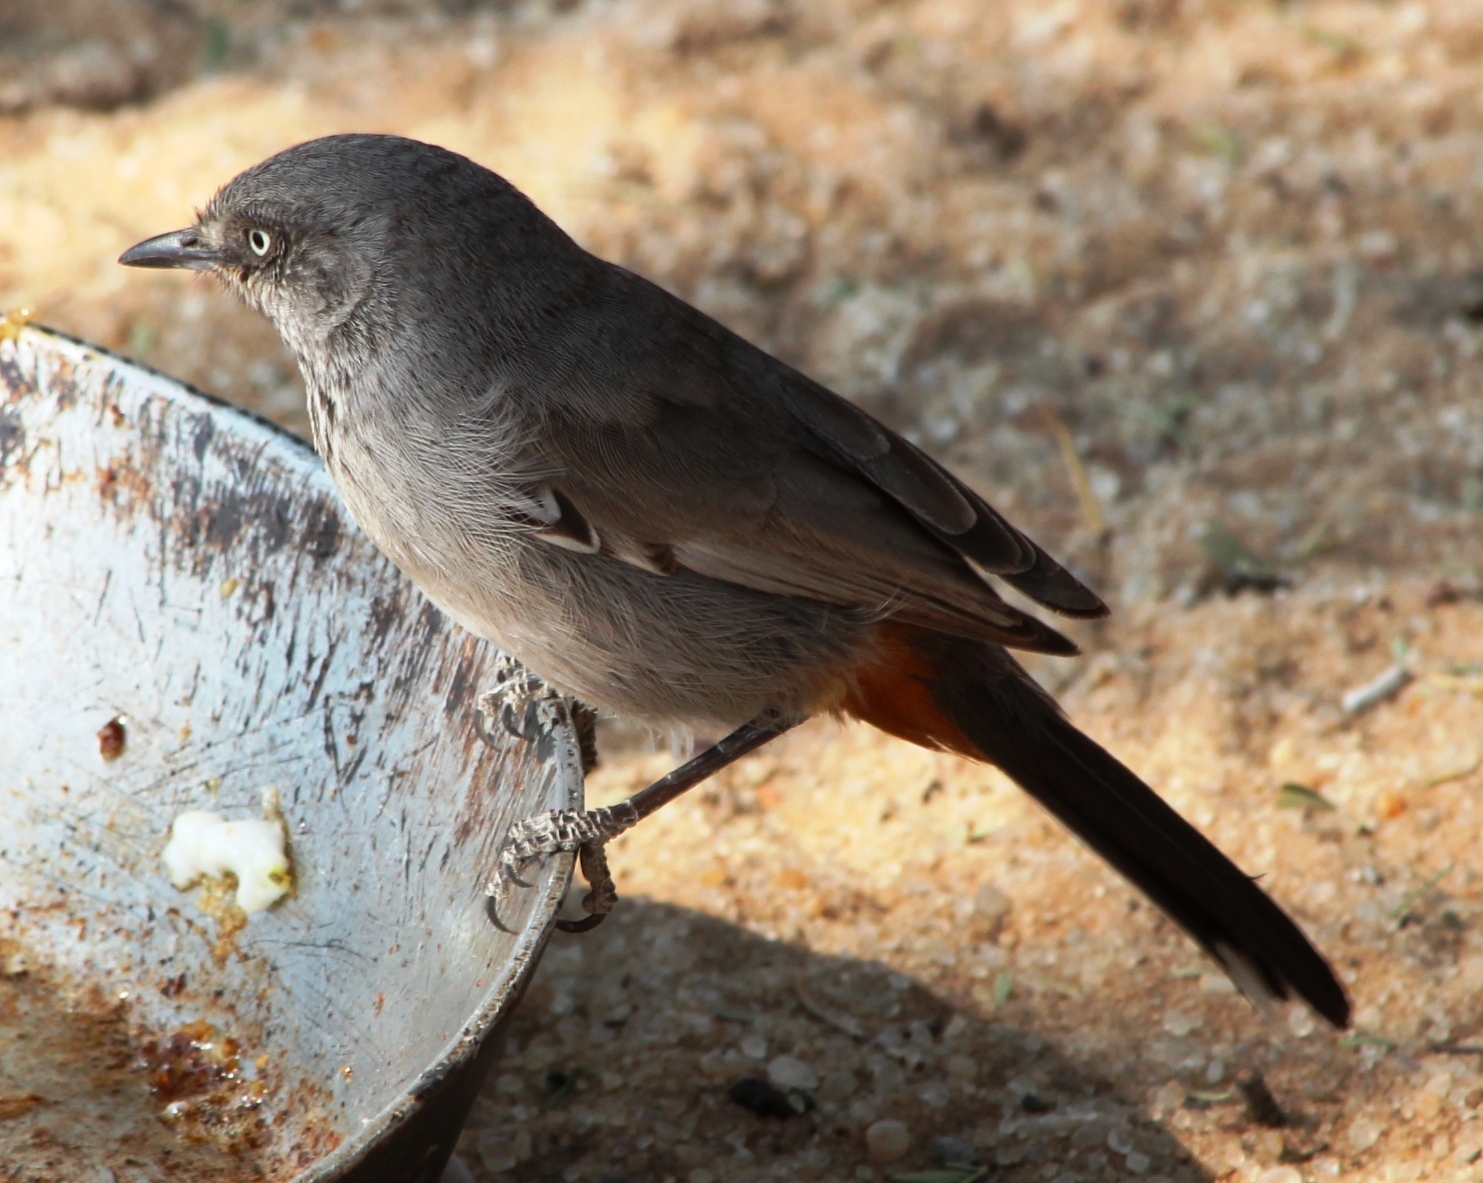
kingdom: Animalia
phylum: Chordata
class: Aves
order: Passeriformes
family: Sylviidae
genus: Sylvia
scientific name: Sylvia subcaerulea
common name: Chestnut-vented warbler
